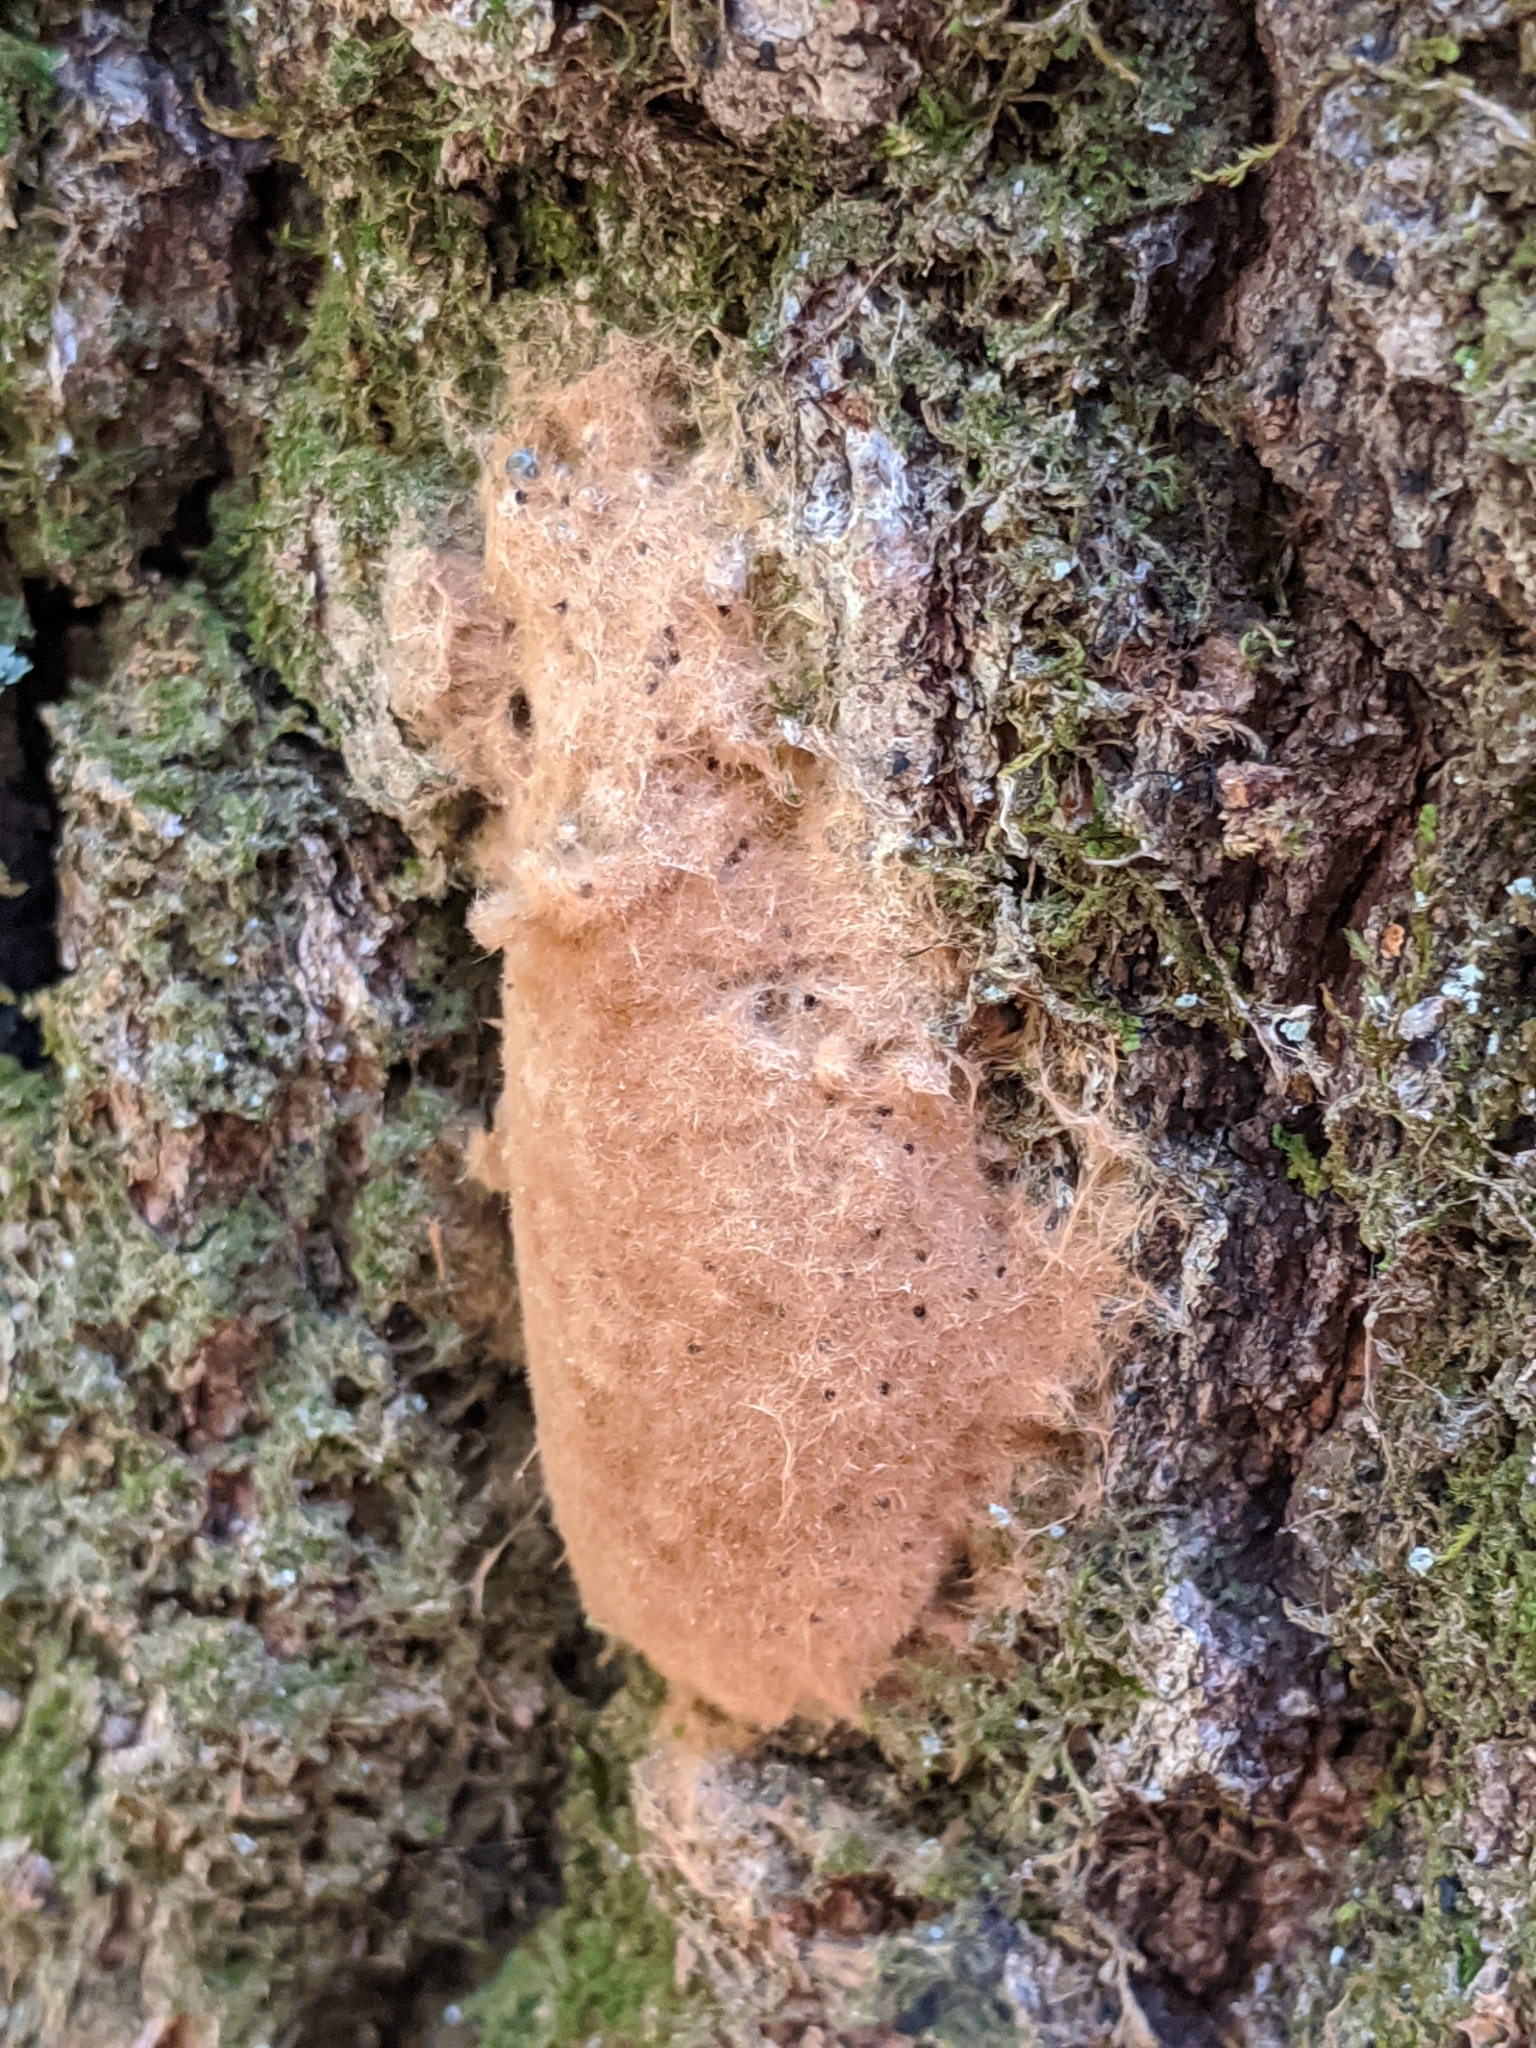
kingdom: Animalia
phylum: Arthropoda
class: Insecta
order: Lepidoptera
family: Erebidae
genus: Lymantria
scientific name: Lymantria dispar
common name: Gypsy moth
